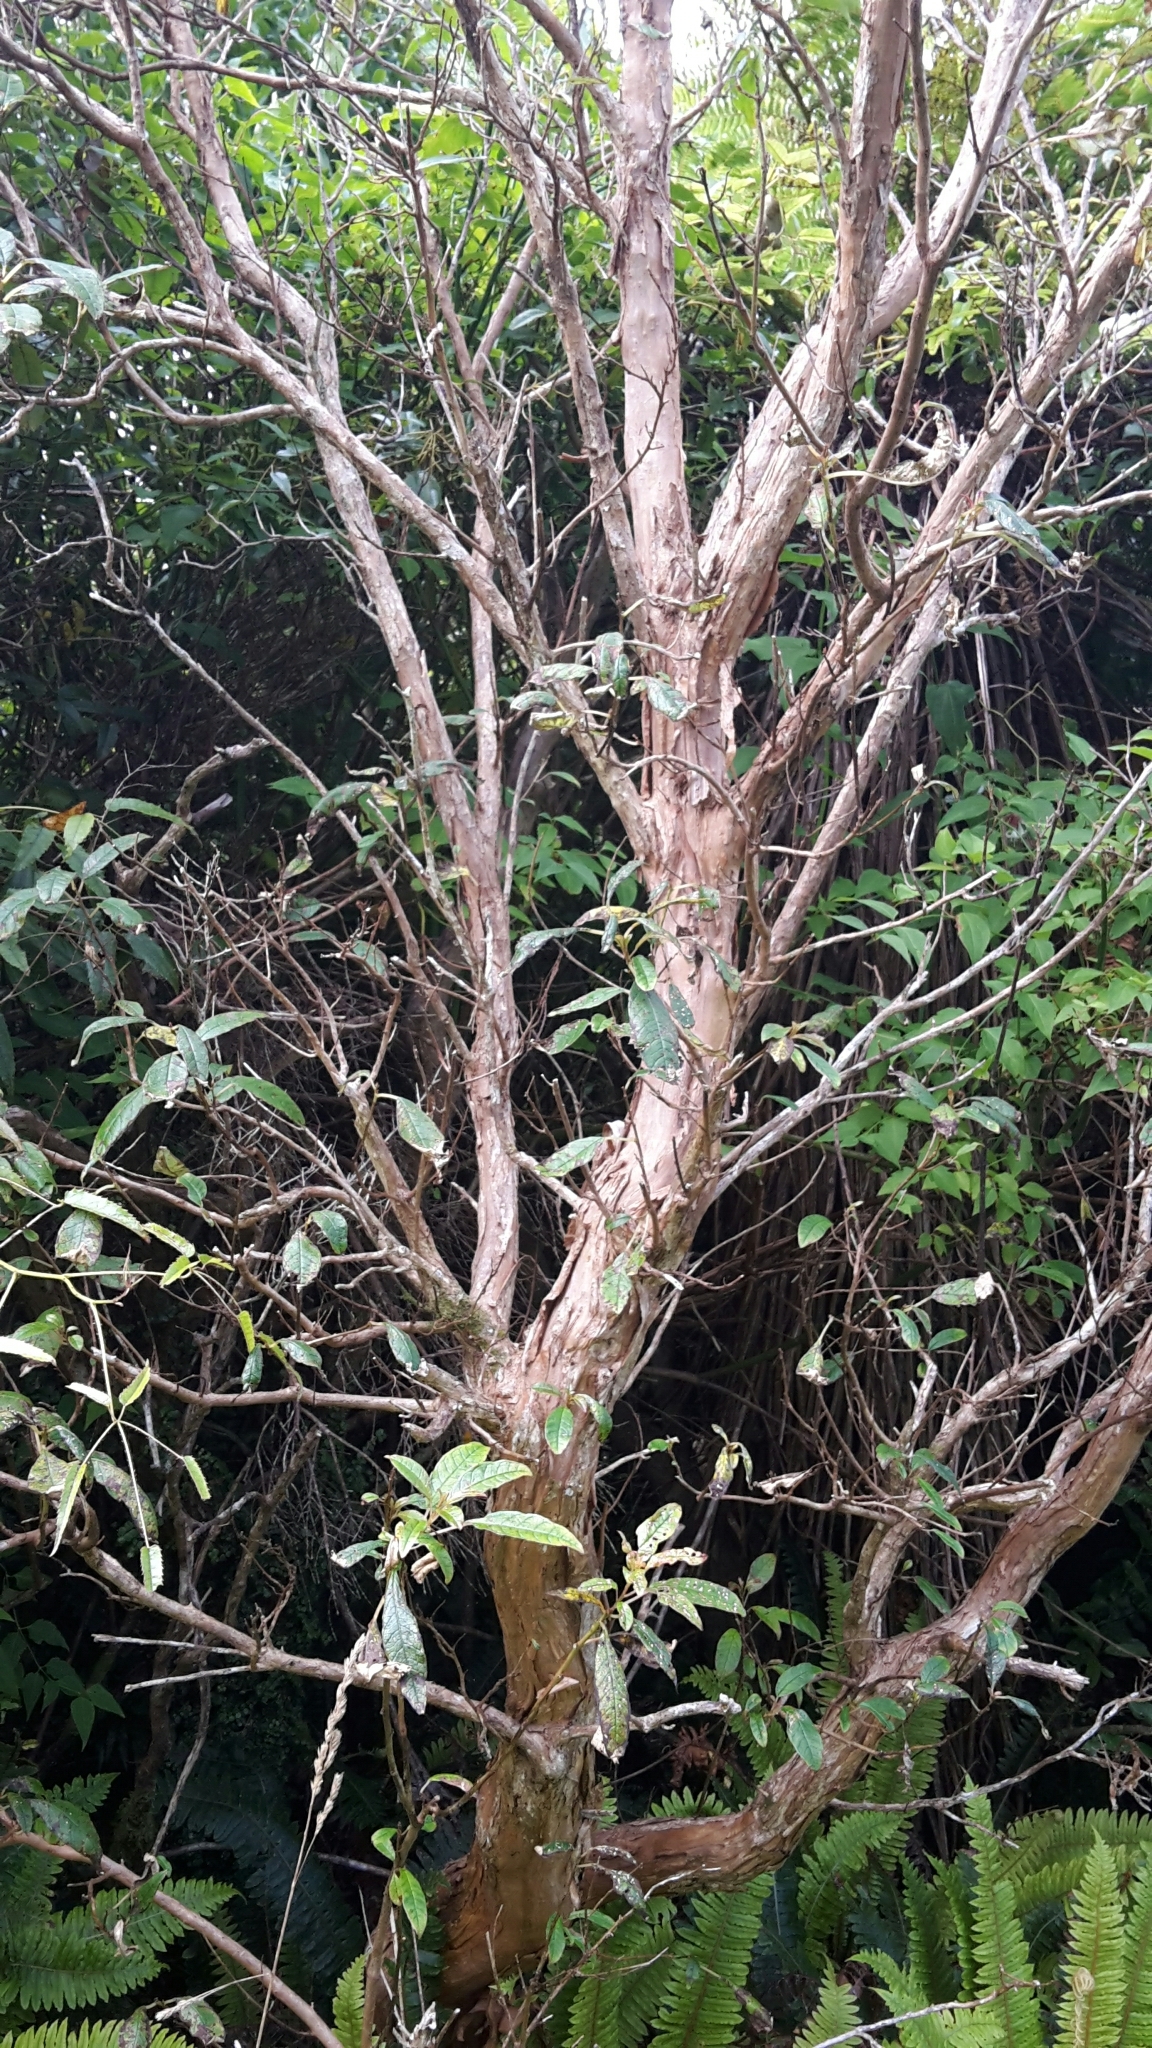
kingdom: Plantae
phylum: Tracheophyta
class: Magnoliopsida
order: Myrtales
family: Onagraceae
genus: Fuchsia
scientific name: Fuchsia excorticata
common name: Tree fuchsia
